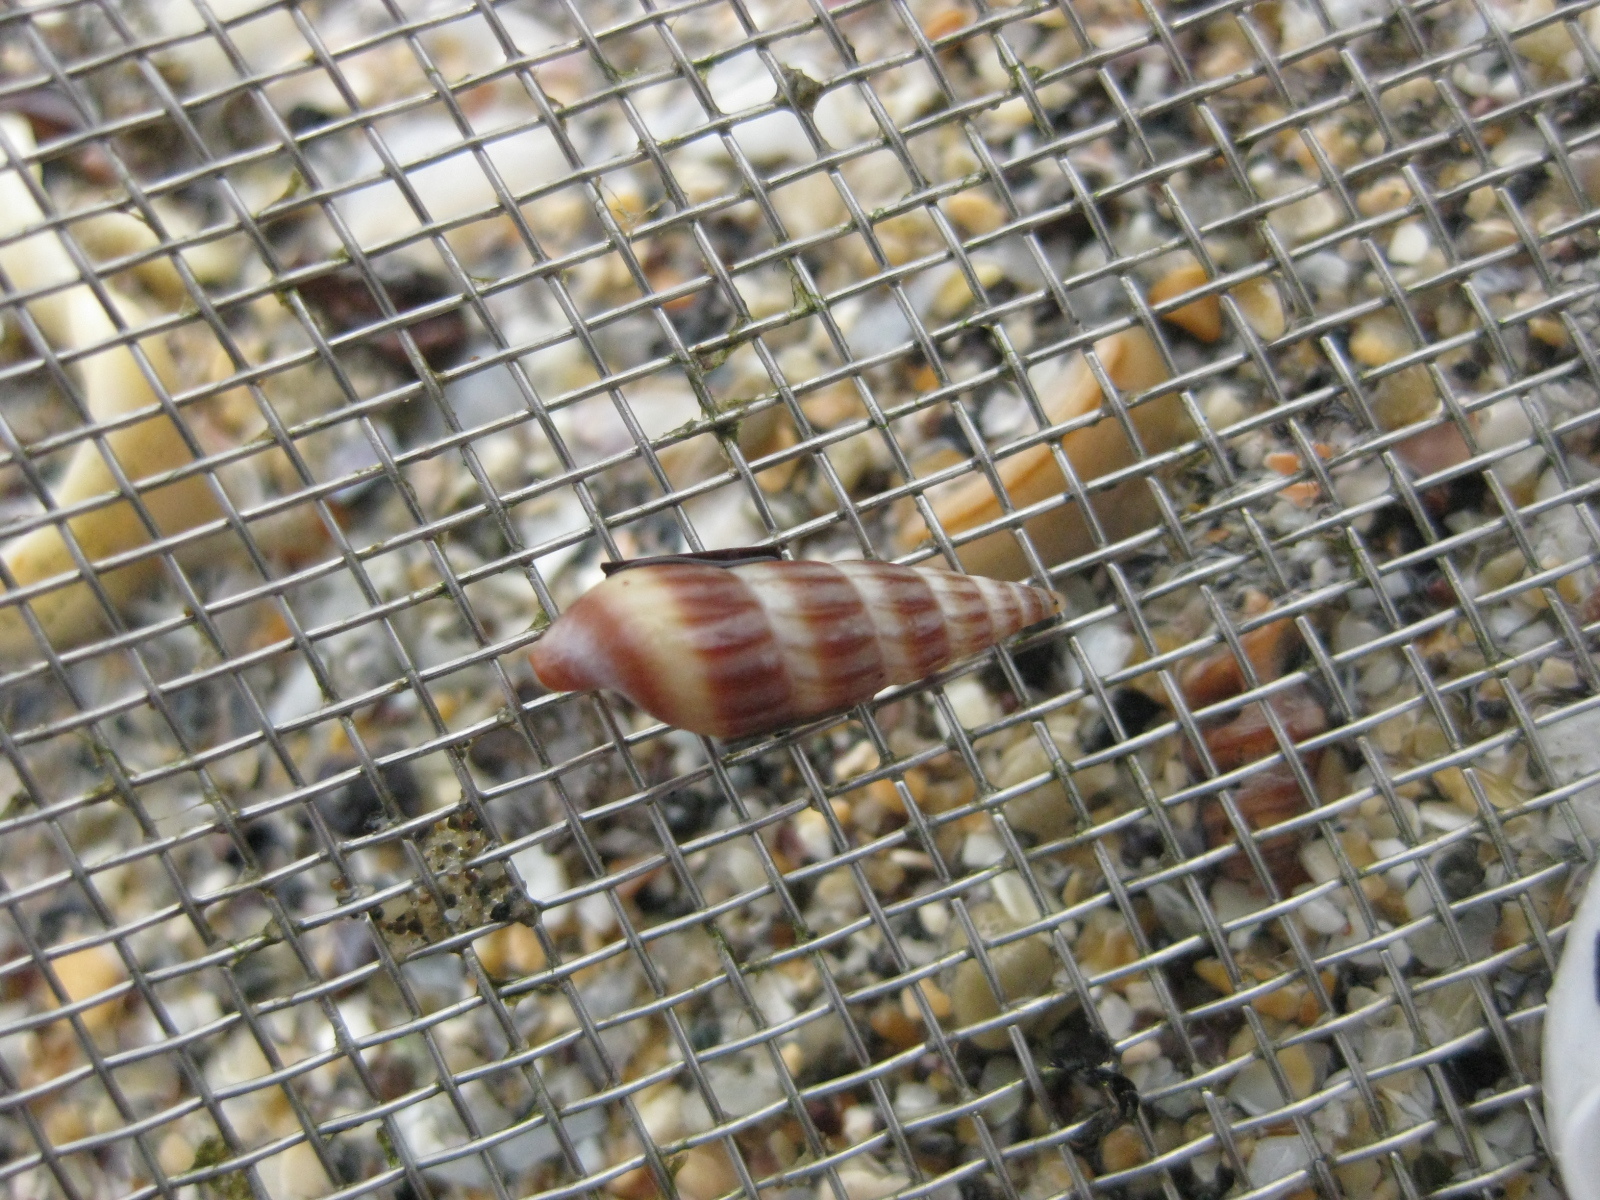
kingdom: Animalia
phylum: Mollusca
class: Gastropoda
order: Neogastropoda
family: Terebridae
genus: Duplicaria
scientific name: Duplicaria tristis
